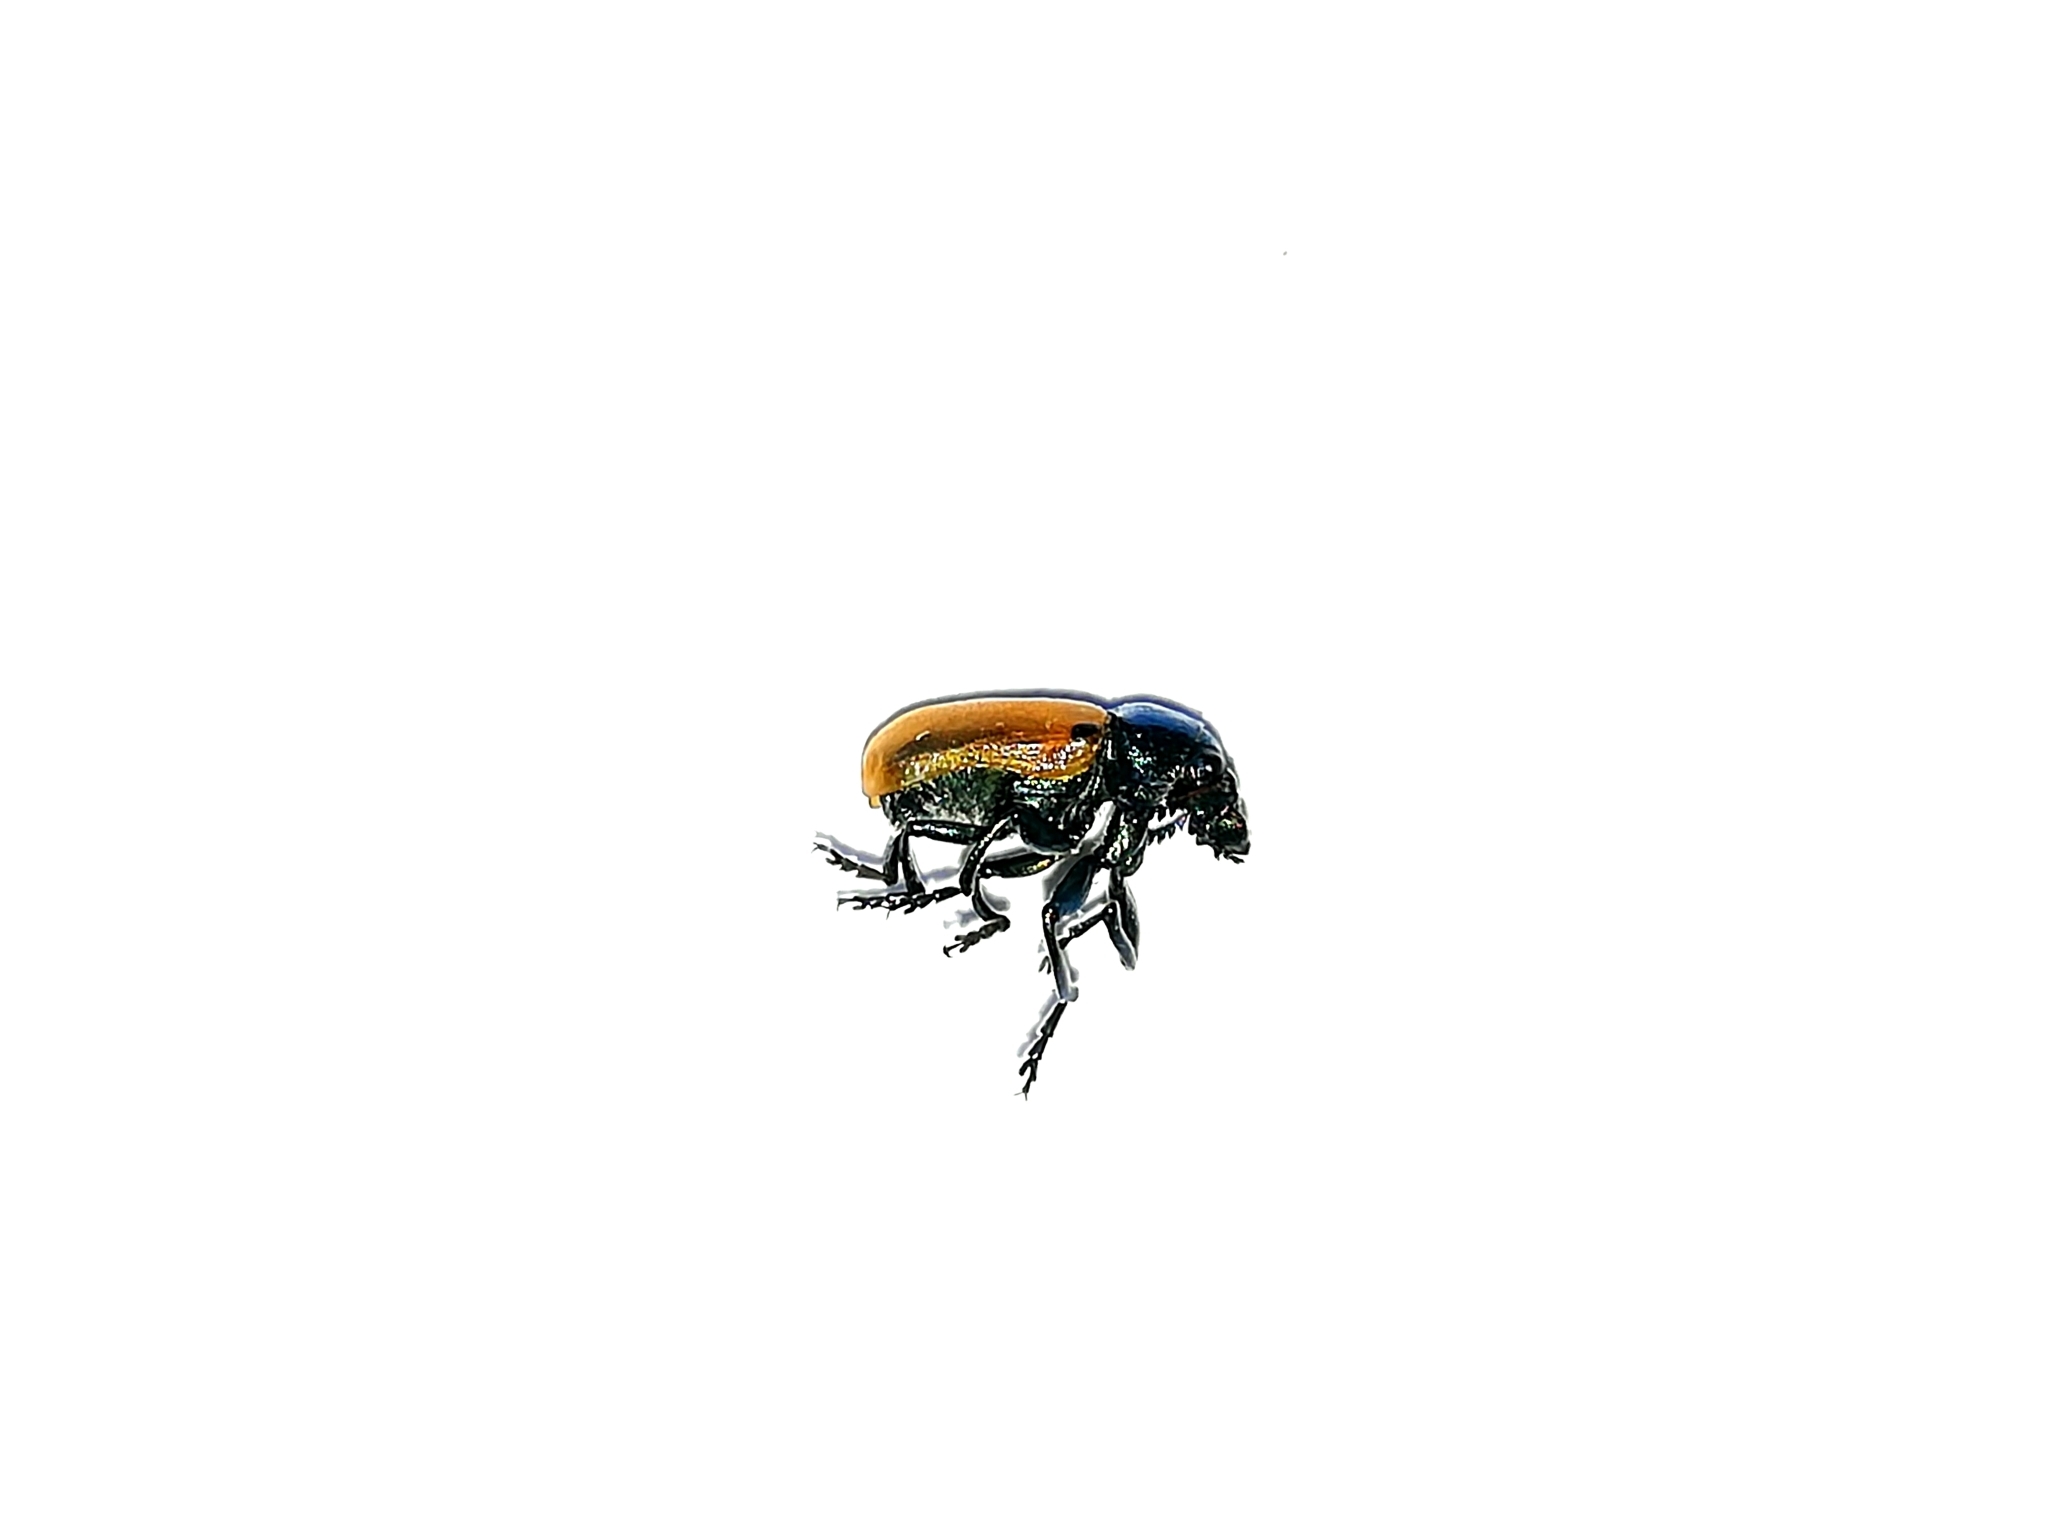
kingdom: Animalia
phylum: Arthropoda
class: Insecta
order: Coleoptera
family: Chrysomelidae
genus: Labidostomis
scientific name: Labidostomis longimana
